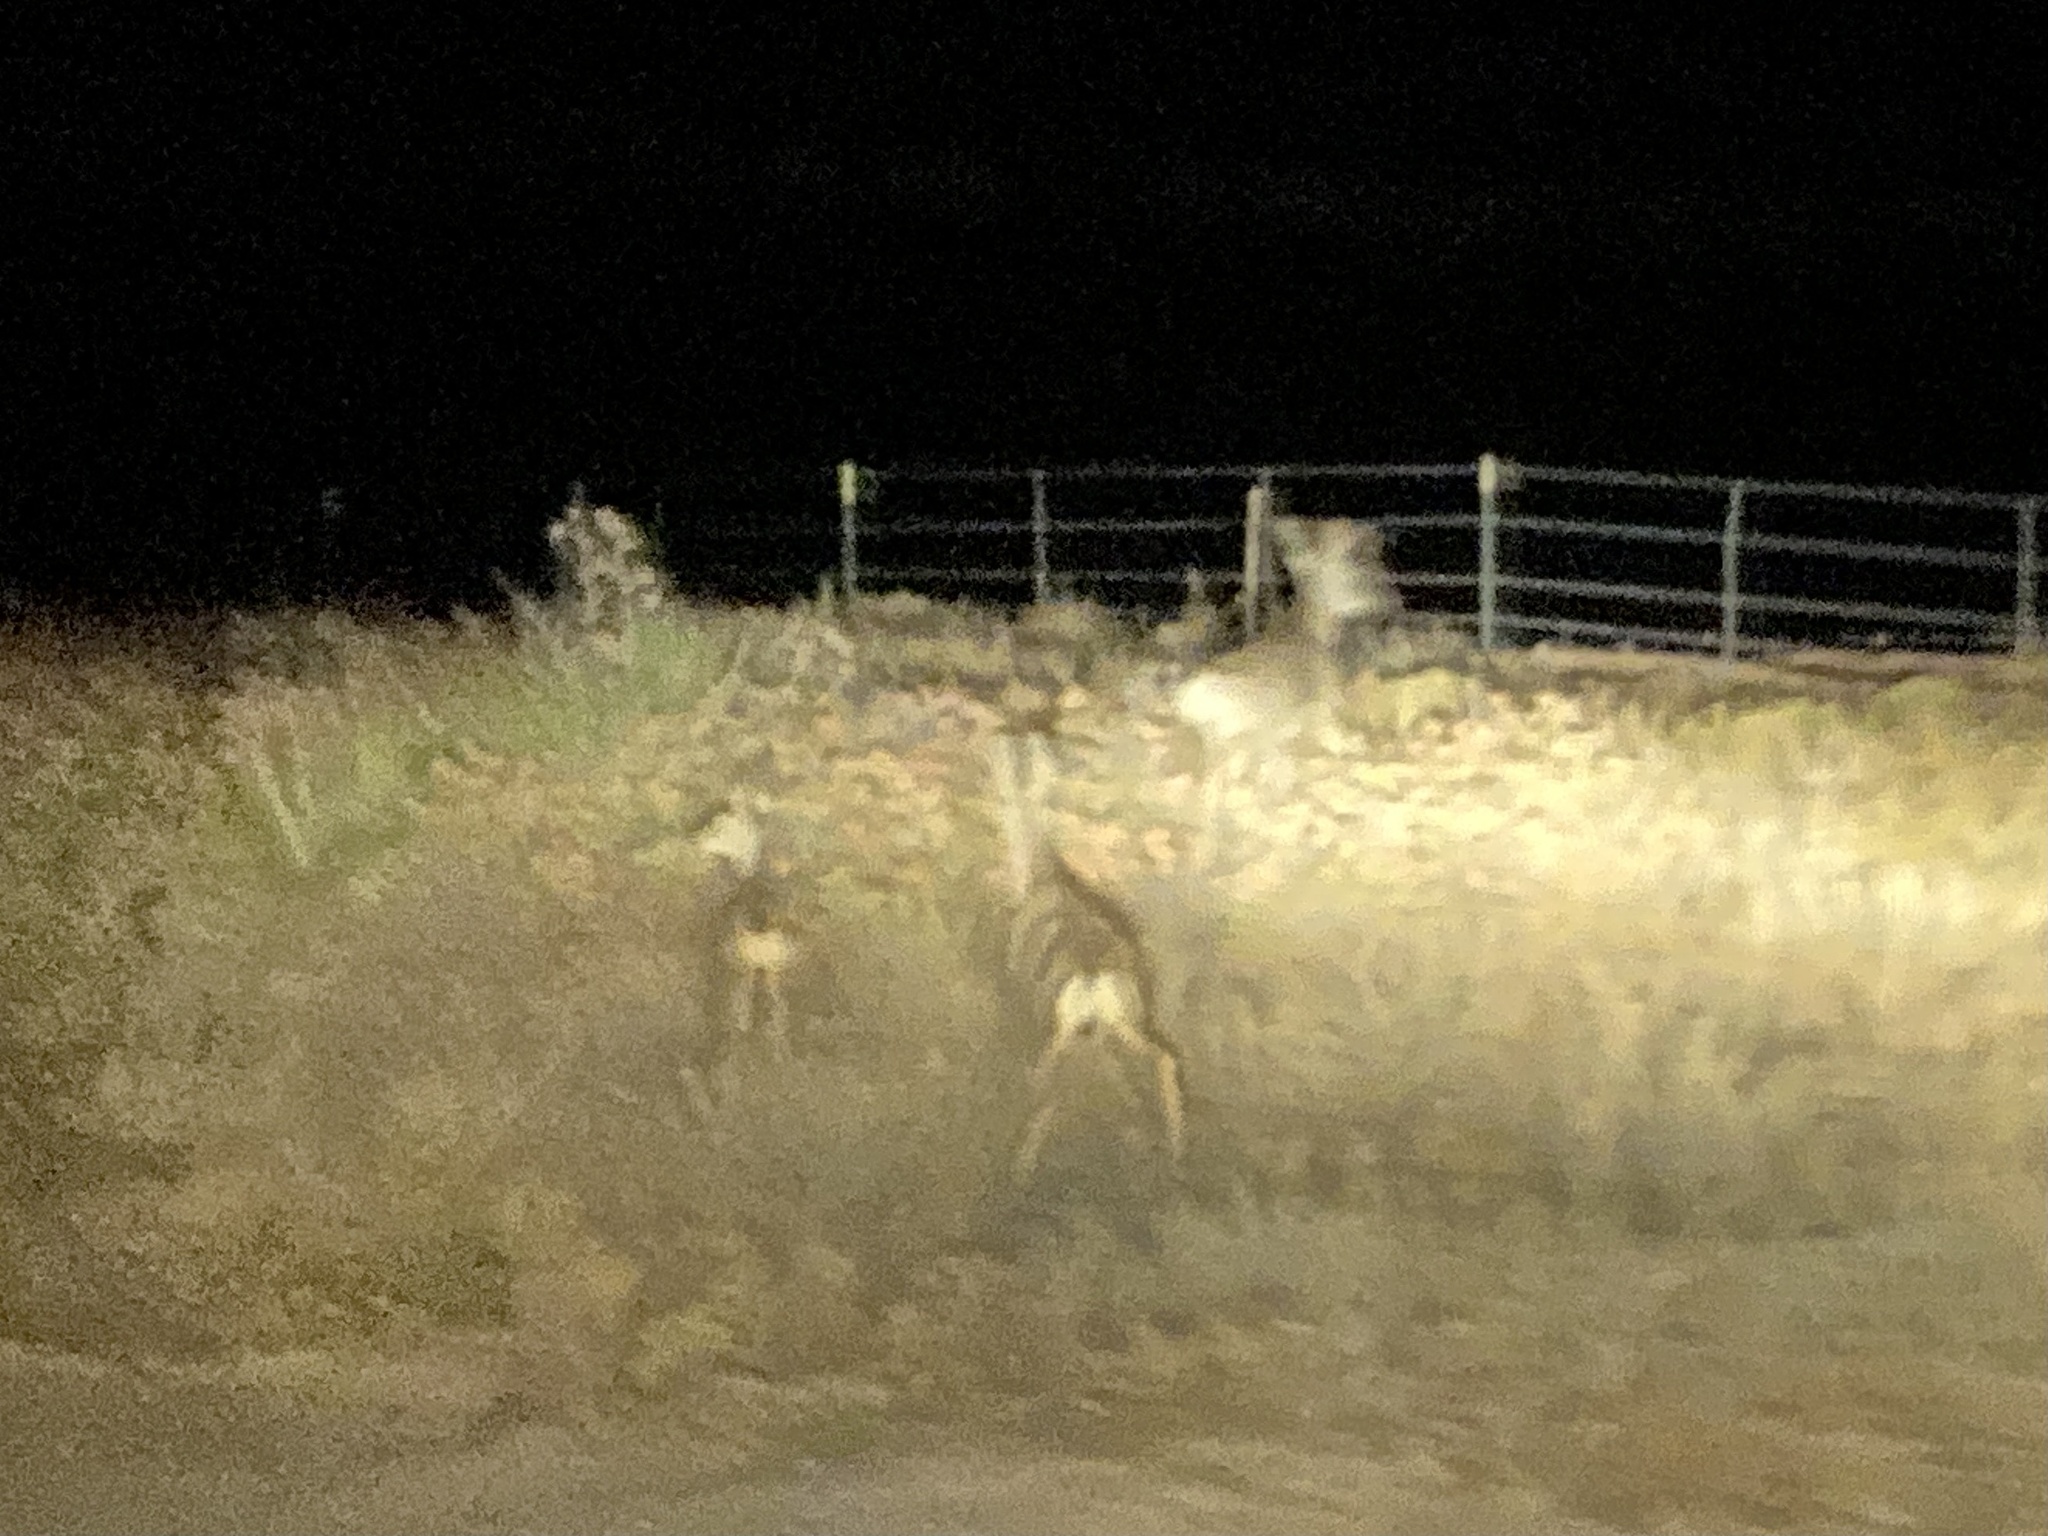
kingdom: Animalia
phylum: Chordata
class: Mammalia
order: Artiodactyla
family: Cervidae
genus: Odocoileus
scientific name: Odocoileus hemionus
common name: Mule deer
